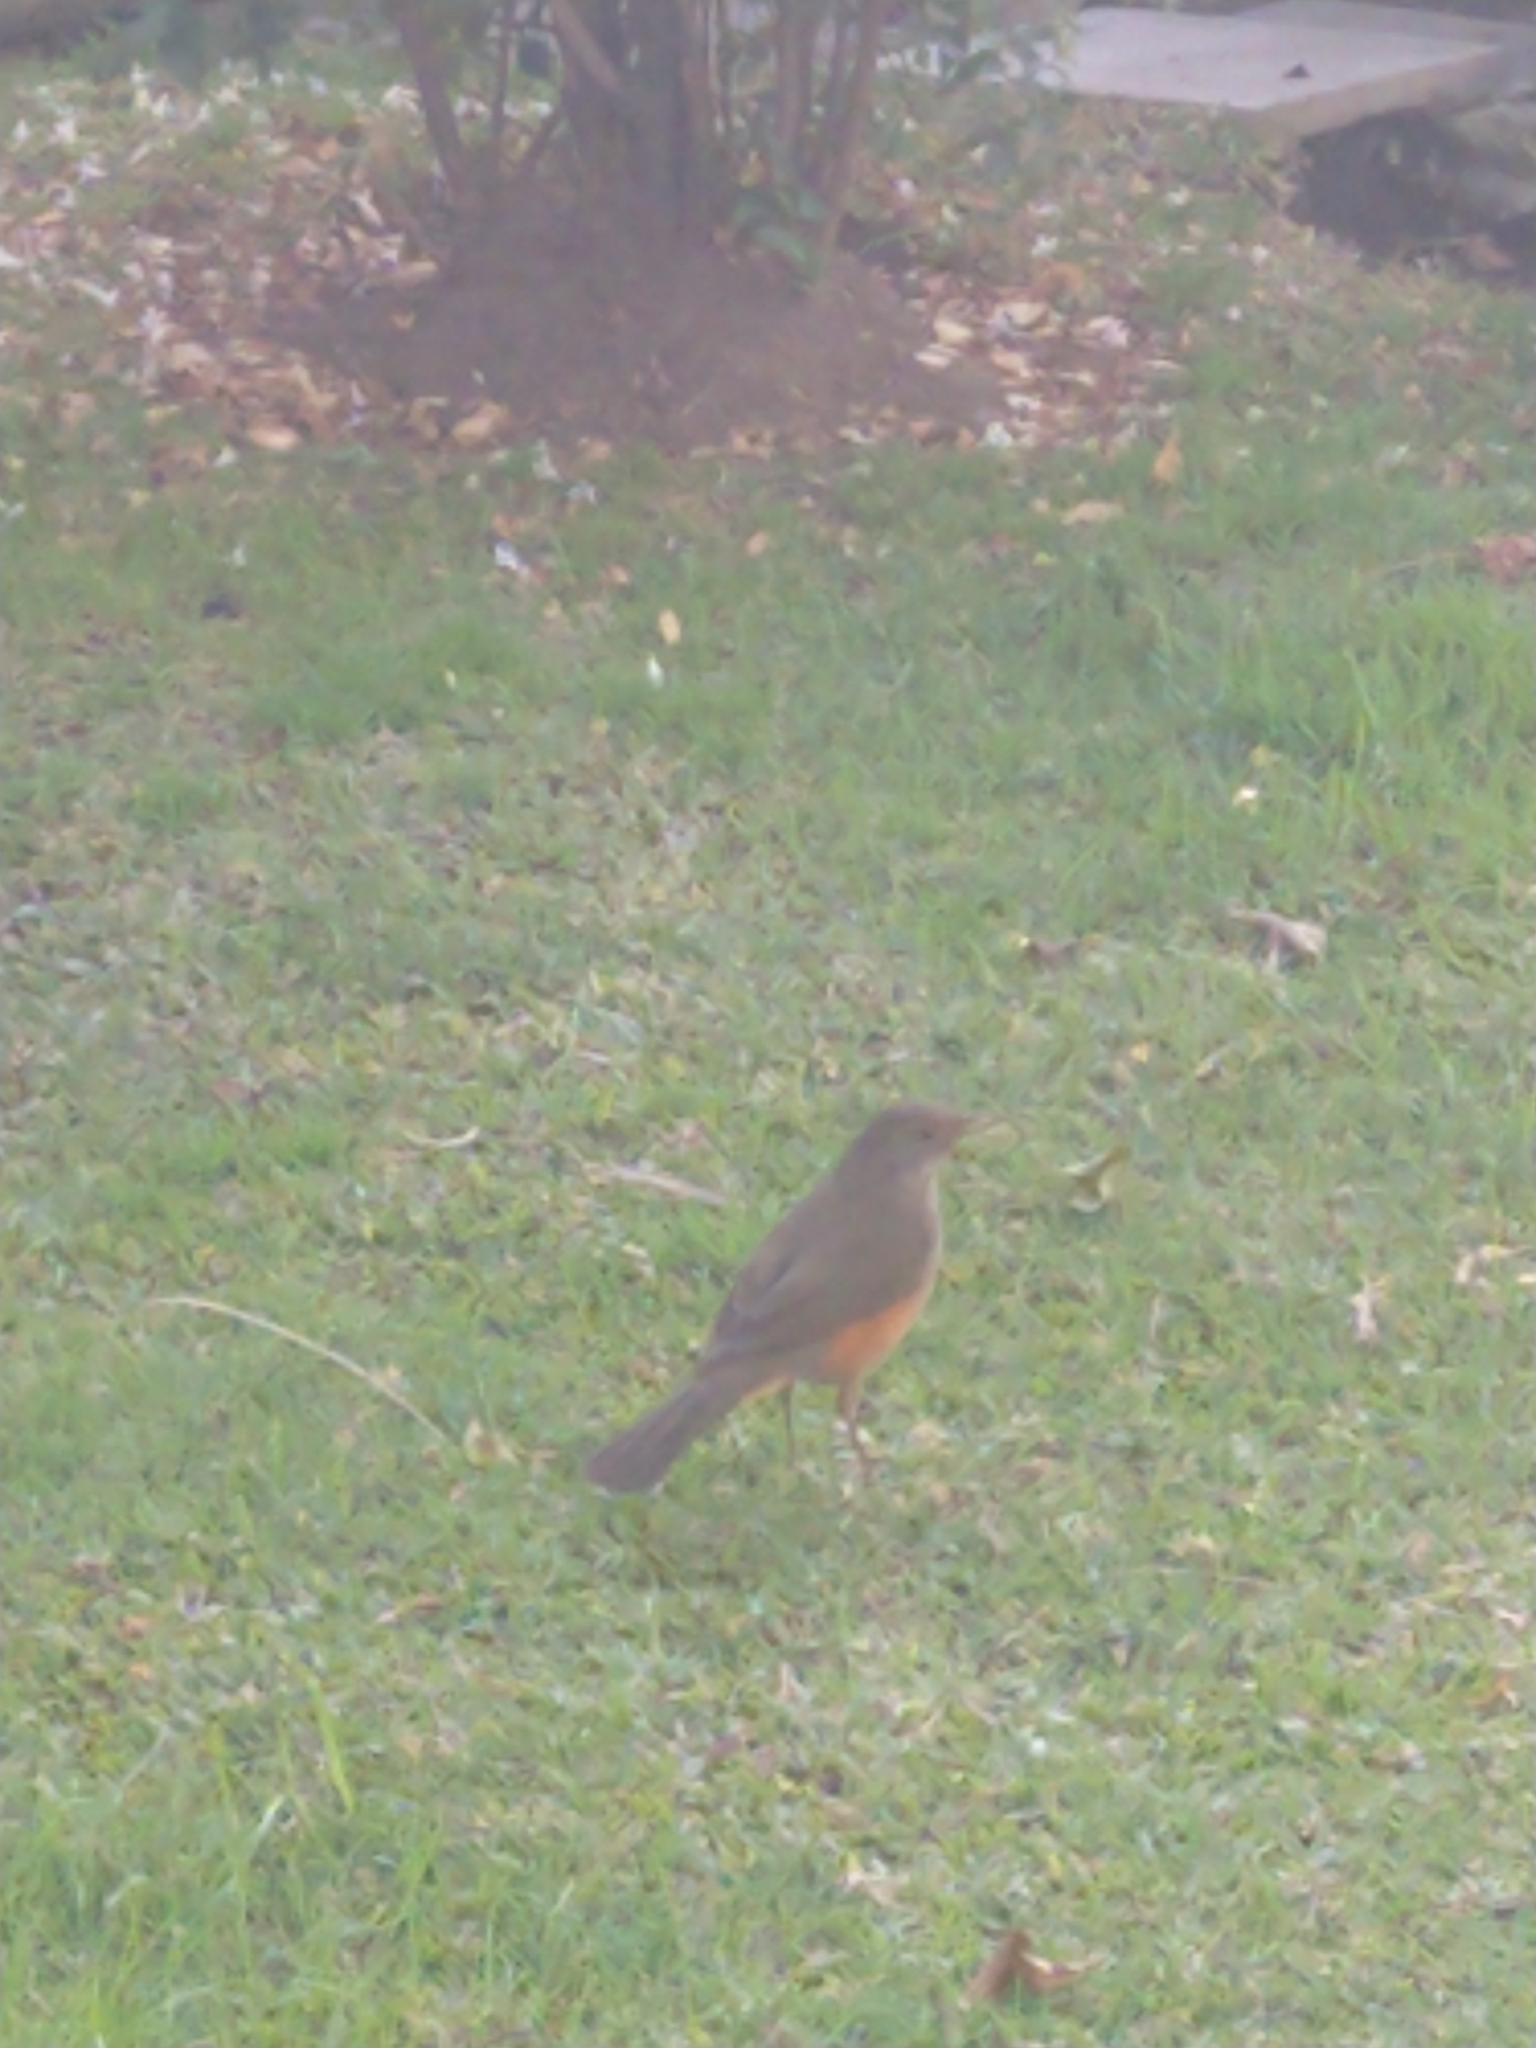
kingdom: Animalia
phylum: Chordata
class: Aves
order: Passeriformes
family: Turdidae
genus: Turdus
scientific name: Turdus rufiventris
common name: Rufous-bellied thrush
